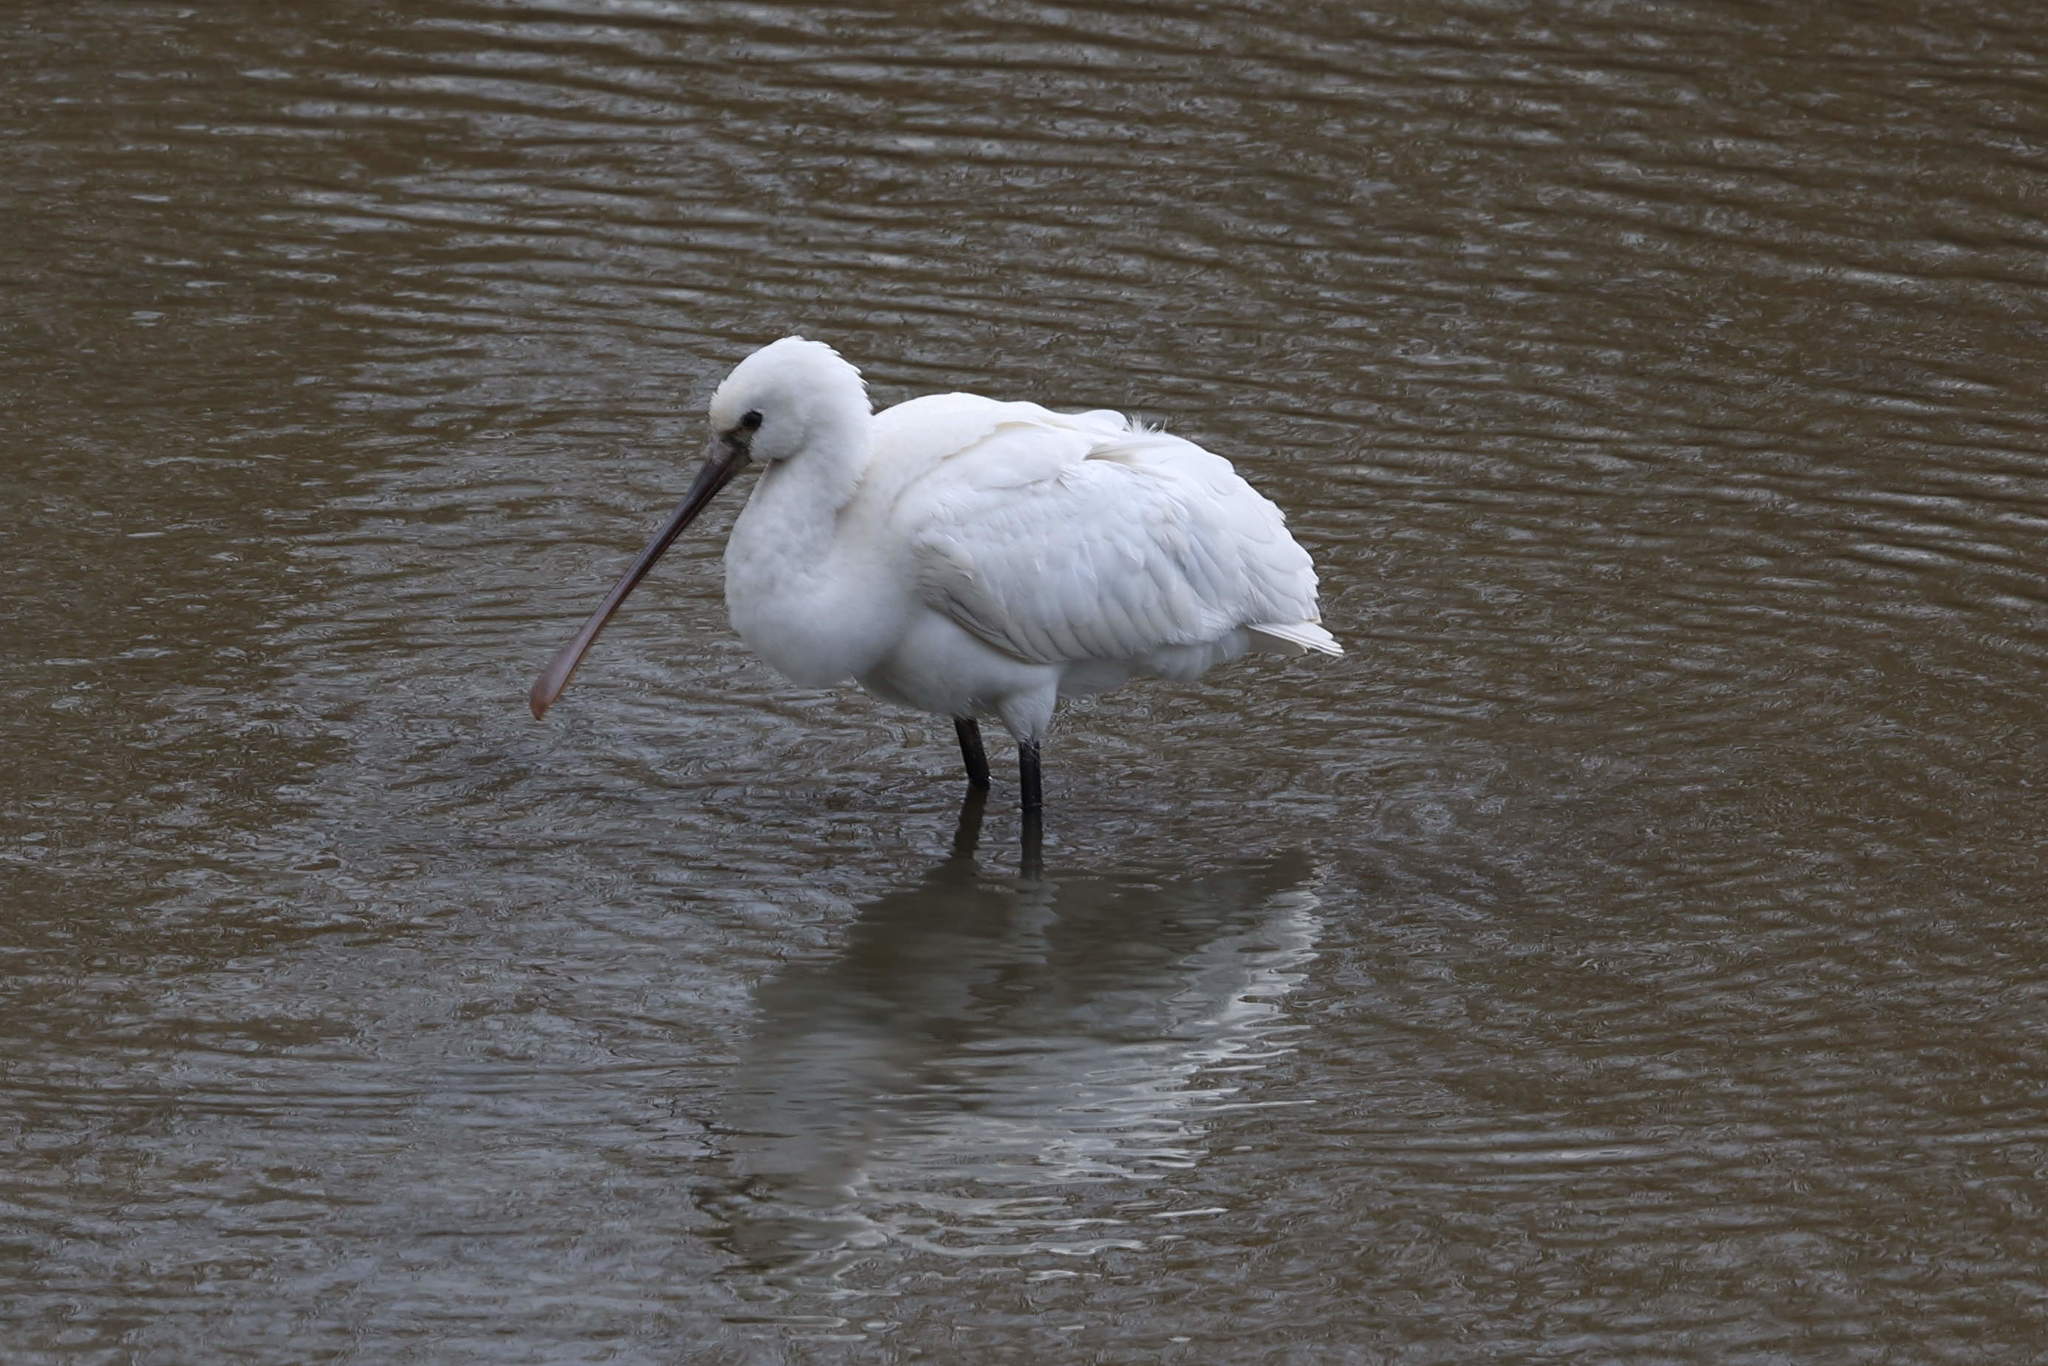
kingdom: Animalia
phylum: Chordata
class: Aves
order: Pelecaniformes
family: Threskiornithidae
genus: Platalea
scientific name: Platalea leucorodia
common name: Eurasian spoonbill
